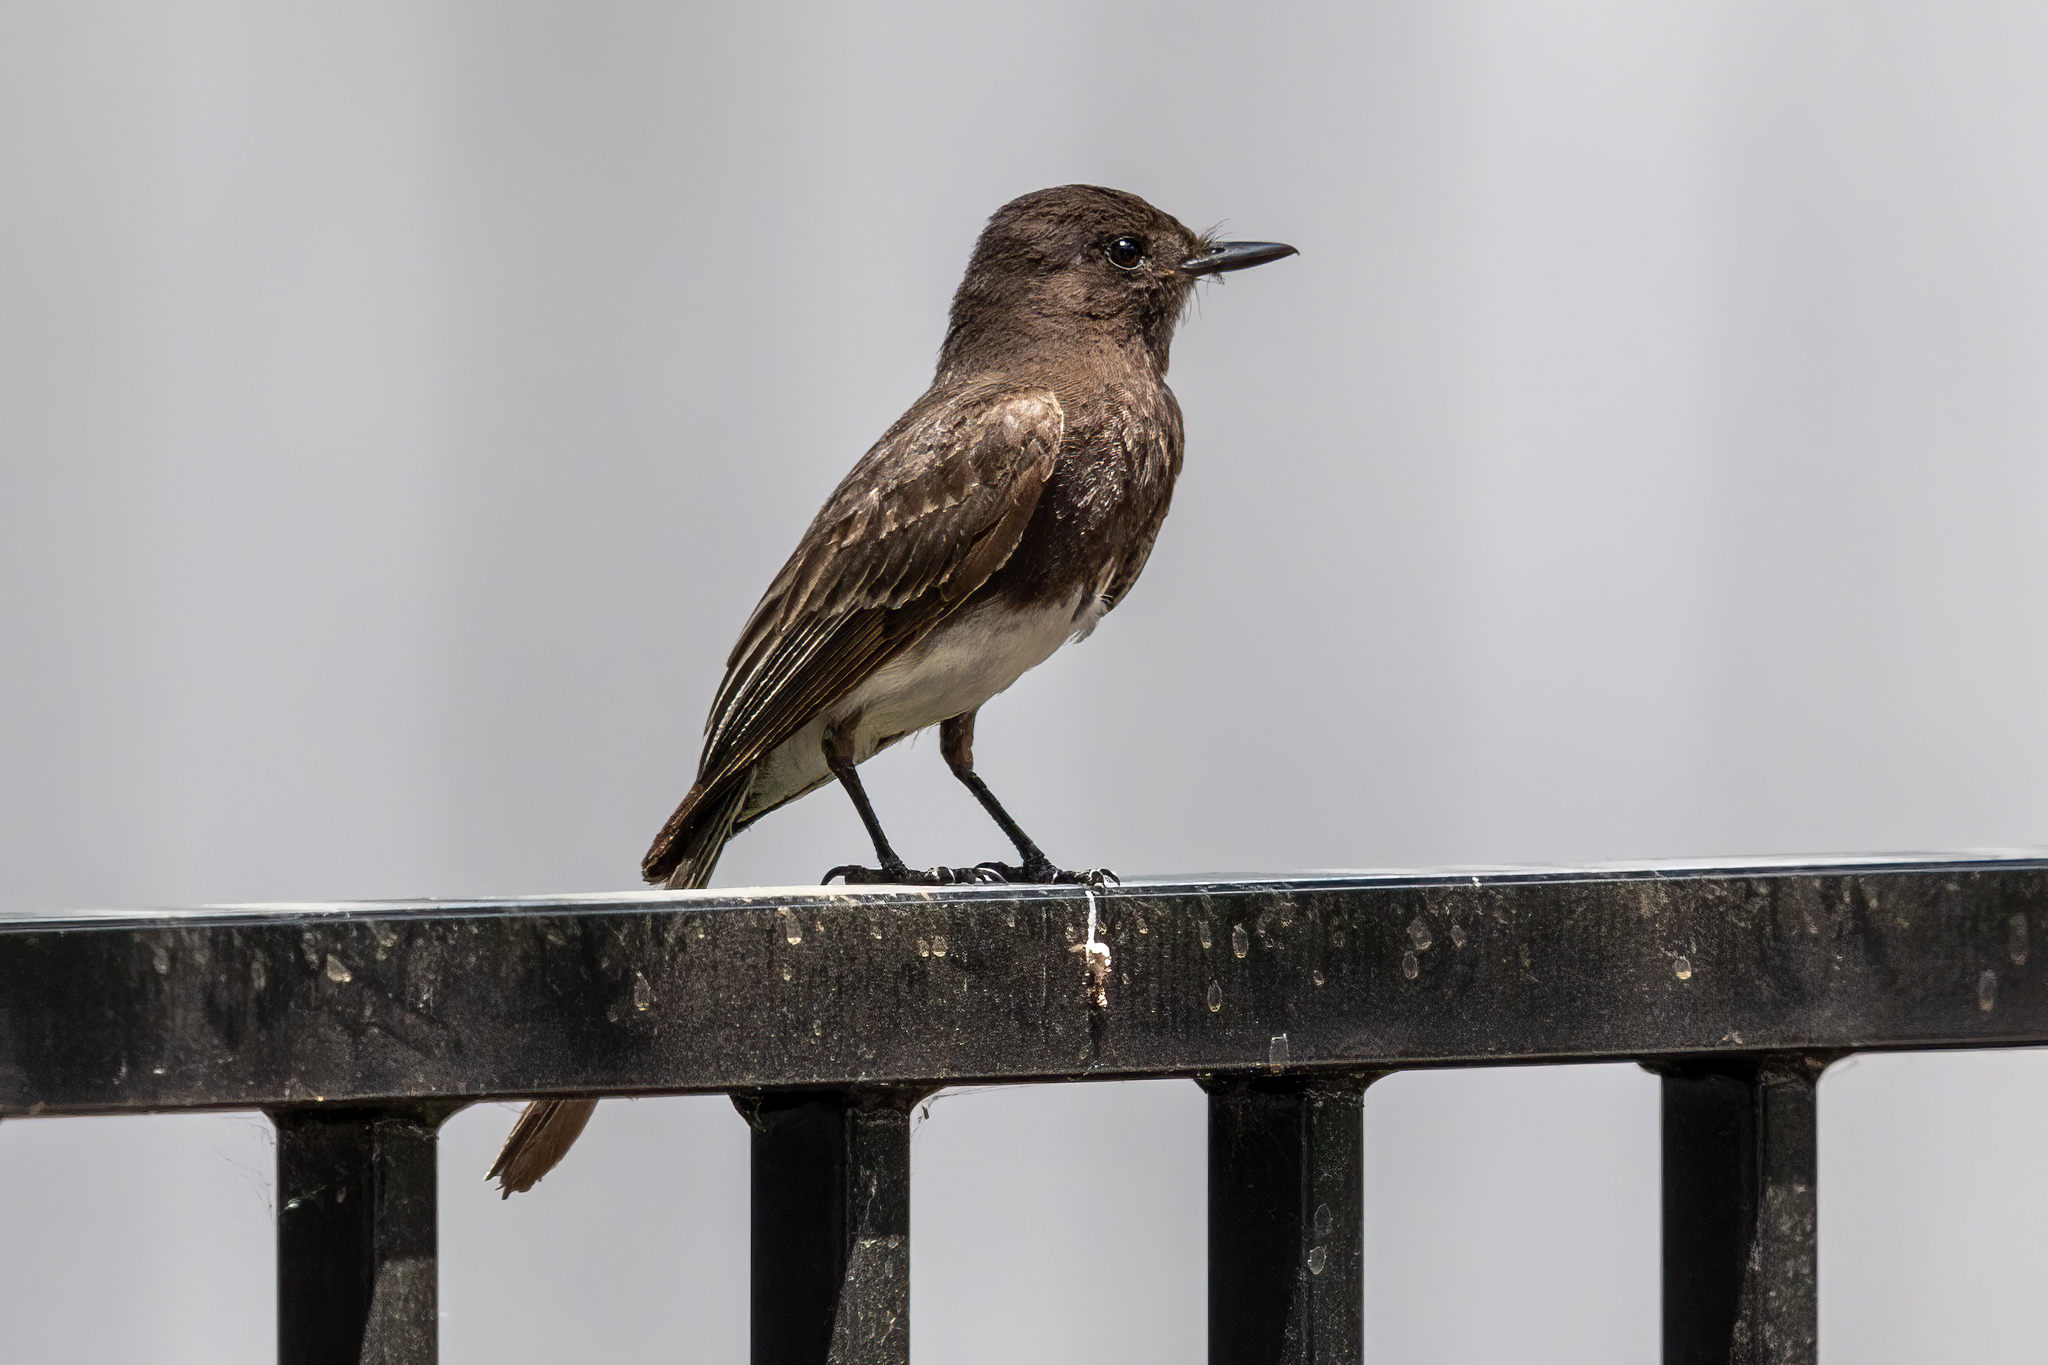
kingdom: Animalia
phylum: Chordata
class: Aves
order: Passeriformes
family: Tyrannidae
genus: Sayornis
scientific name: Sayornis nigricans
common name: Black phoebe
